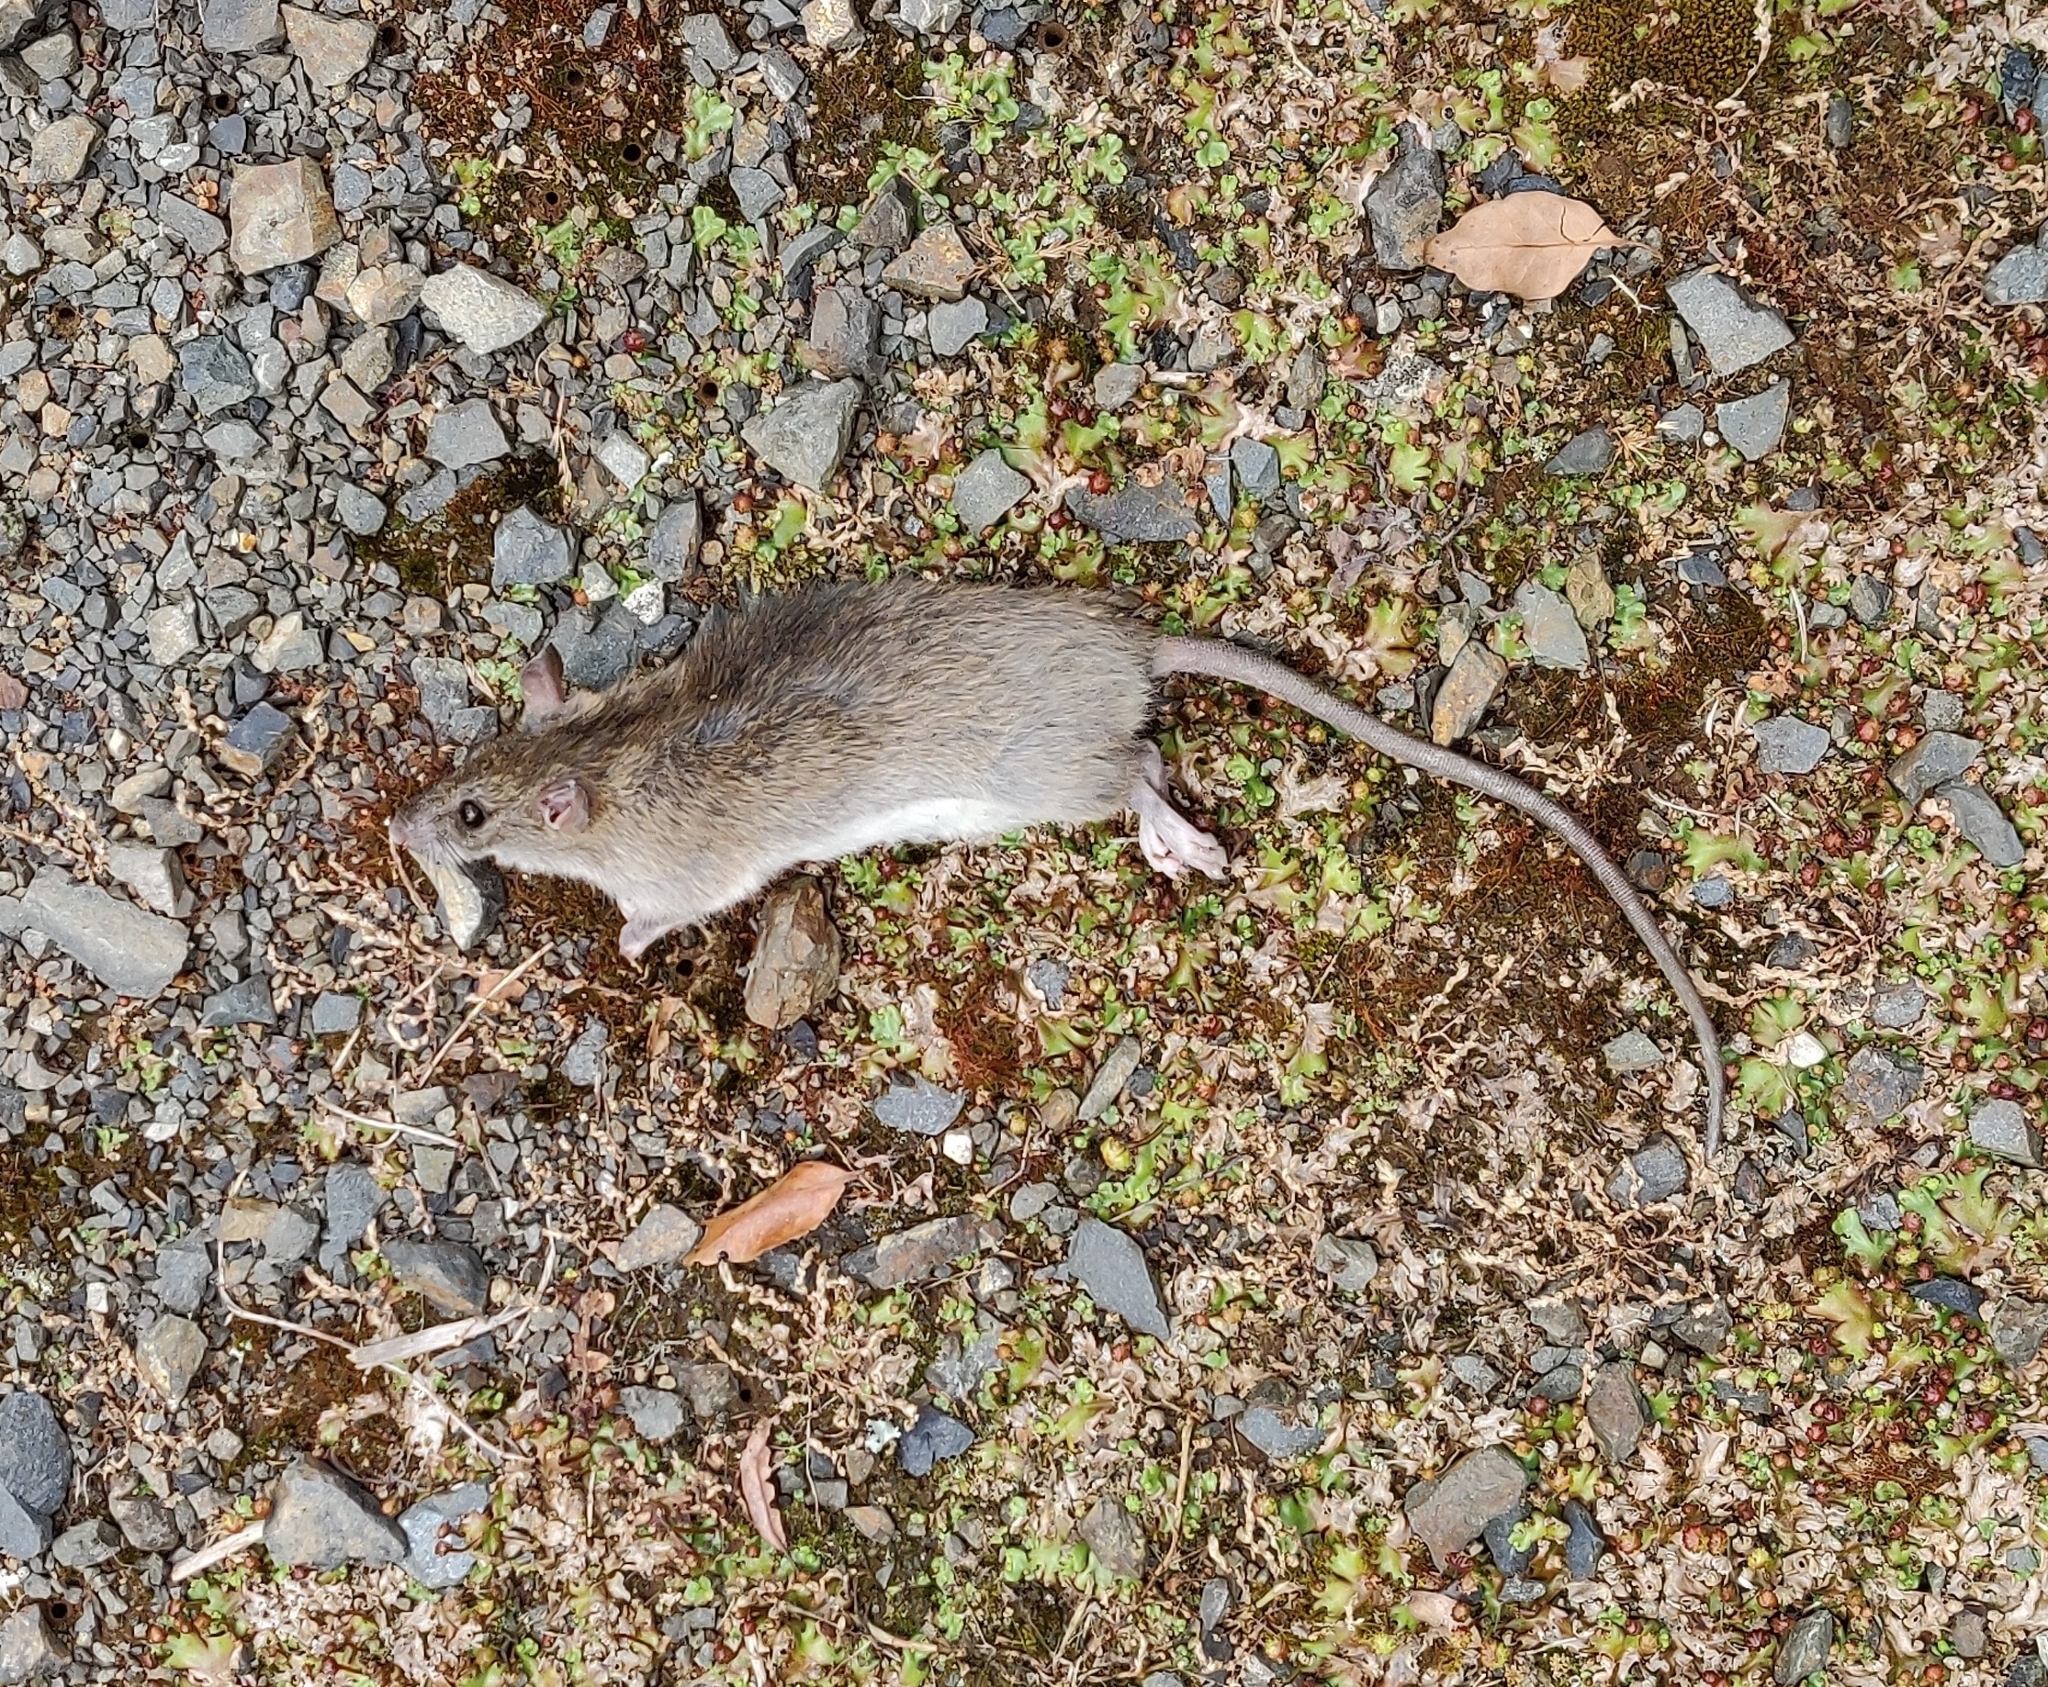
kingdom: Animalia
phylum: Chordata
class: Mammalia
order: Rodentia
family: Muridae
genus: Rattus
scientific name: Rattus rattus
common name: Black rat
